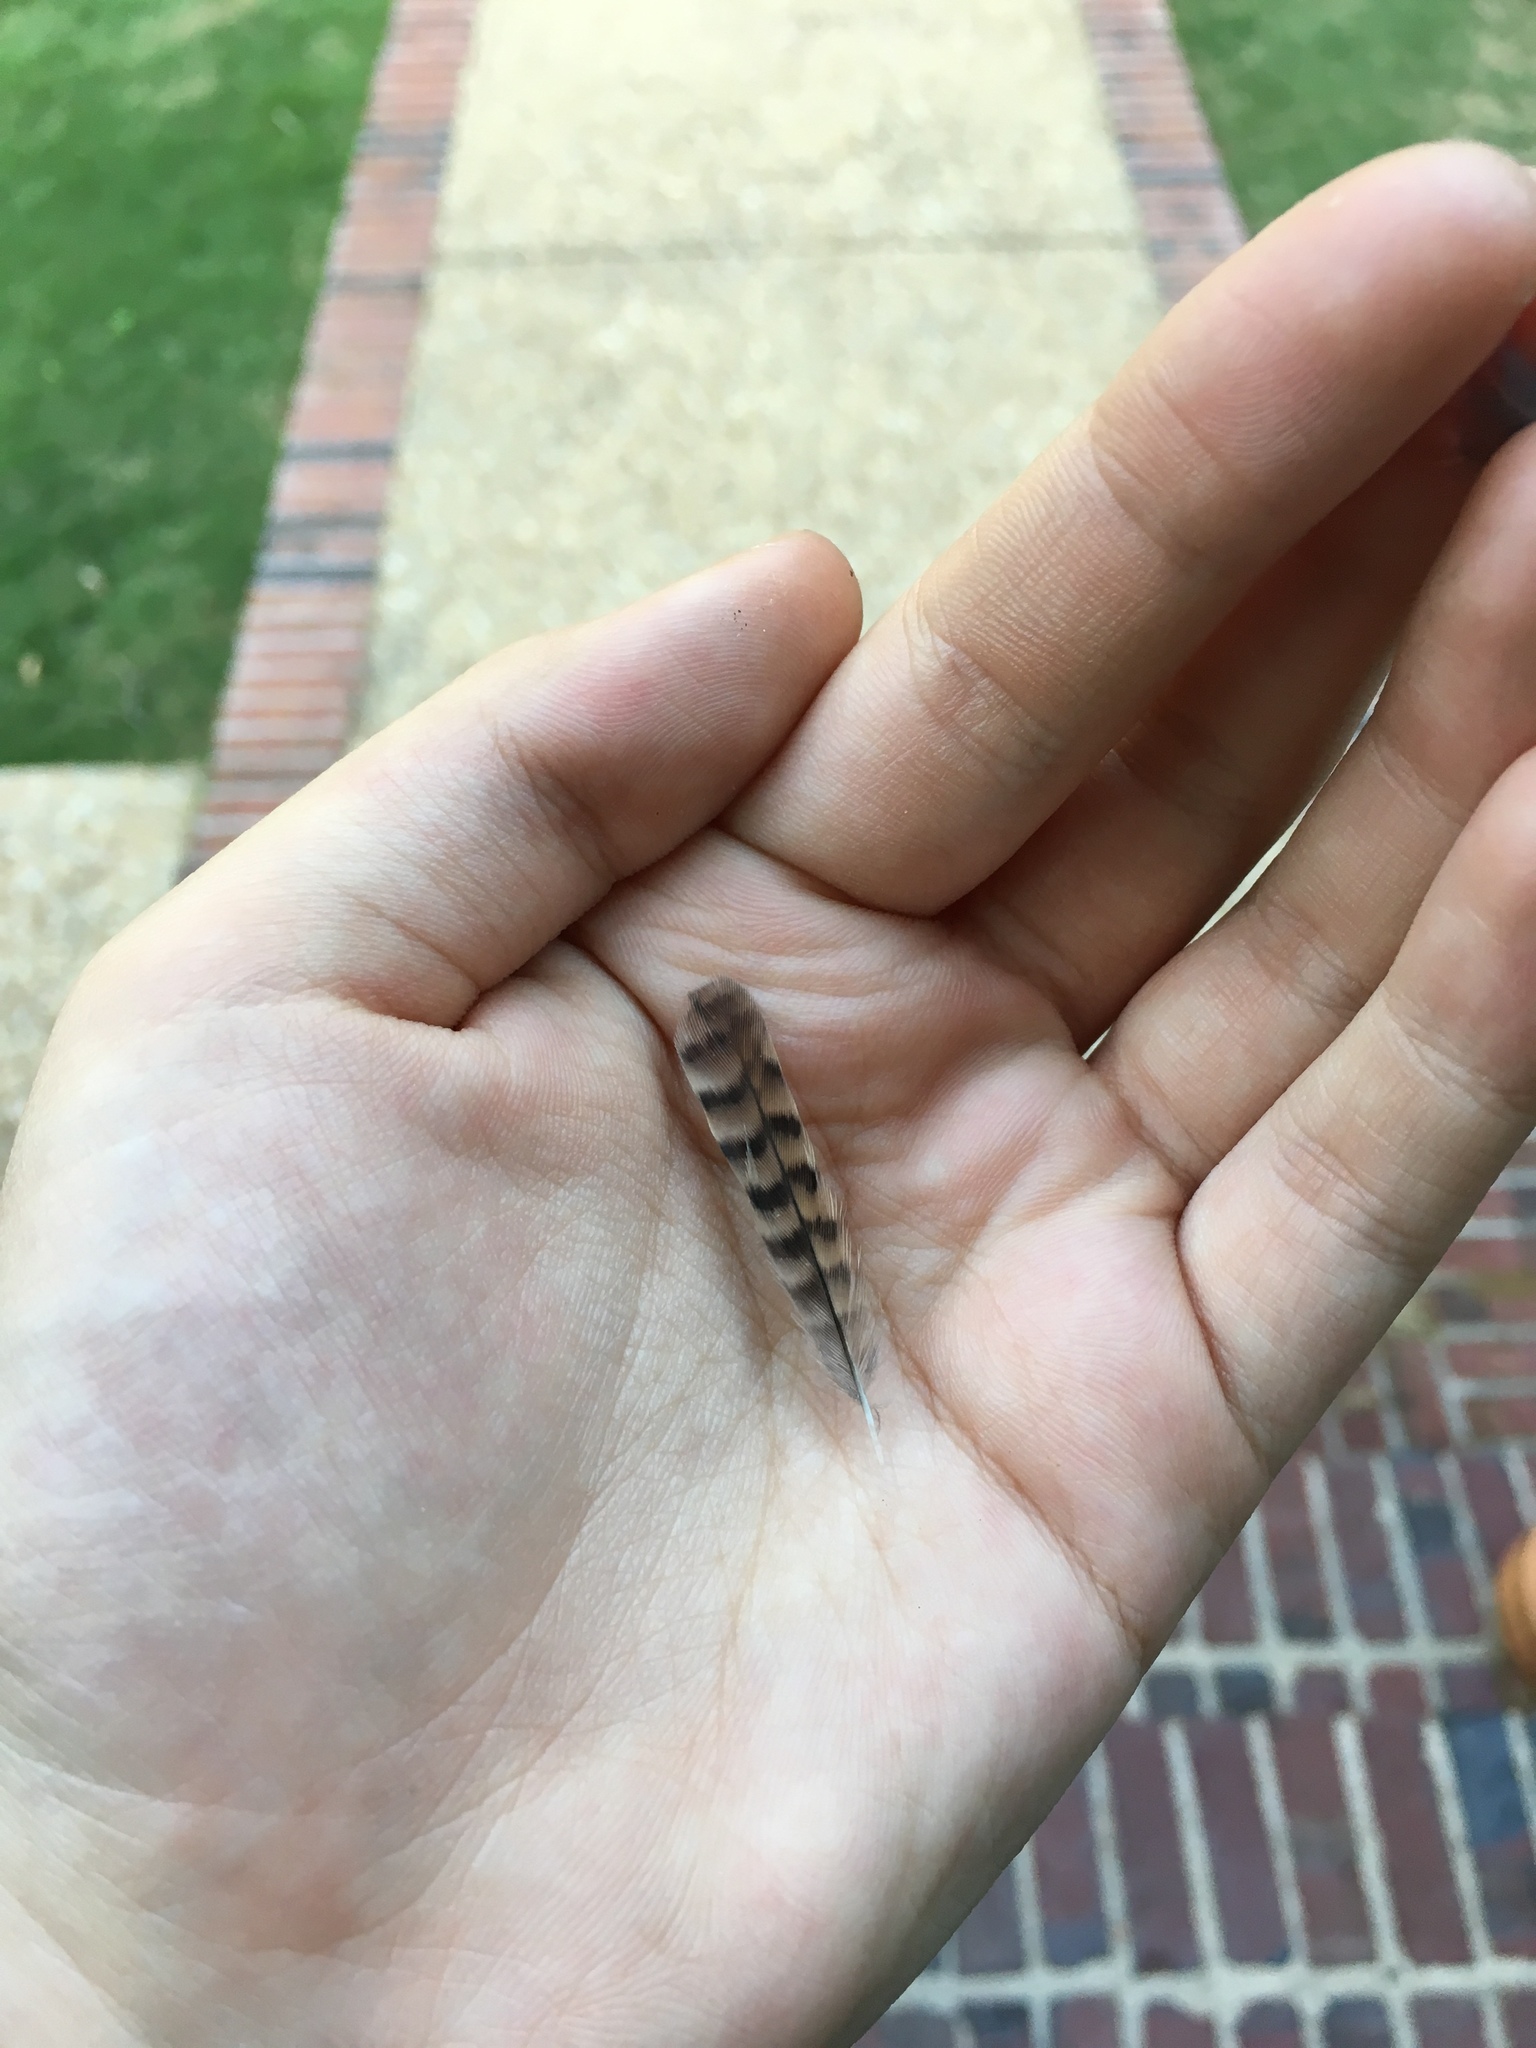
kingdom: Animalia
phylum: Chordata
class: Aves
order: Passeriformes
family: Troglodytidae
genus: Troglodytes
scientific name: Troglodytes aedon
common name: House wren
